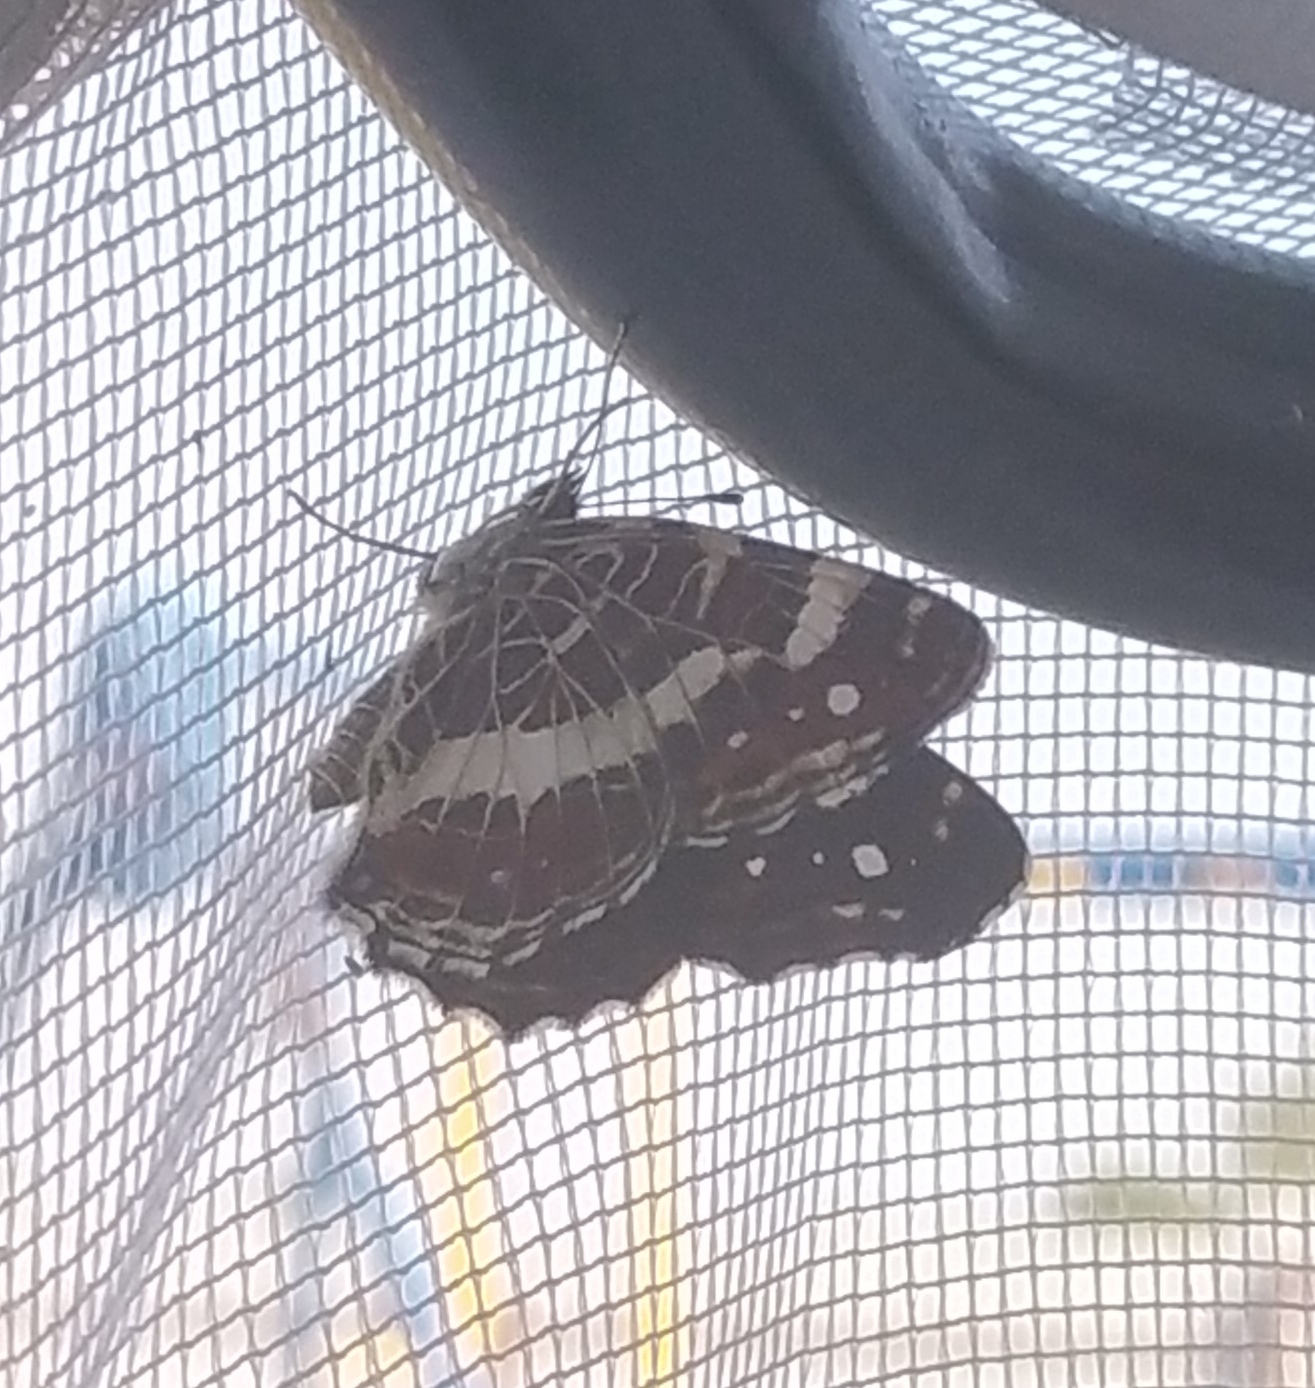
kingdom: Animalia
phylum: Arthropoda
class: Insecta
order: Lepidoptera
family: Nymphalidae
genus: Araschnia
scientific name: Araschnia levana
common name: Map butterfly
